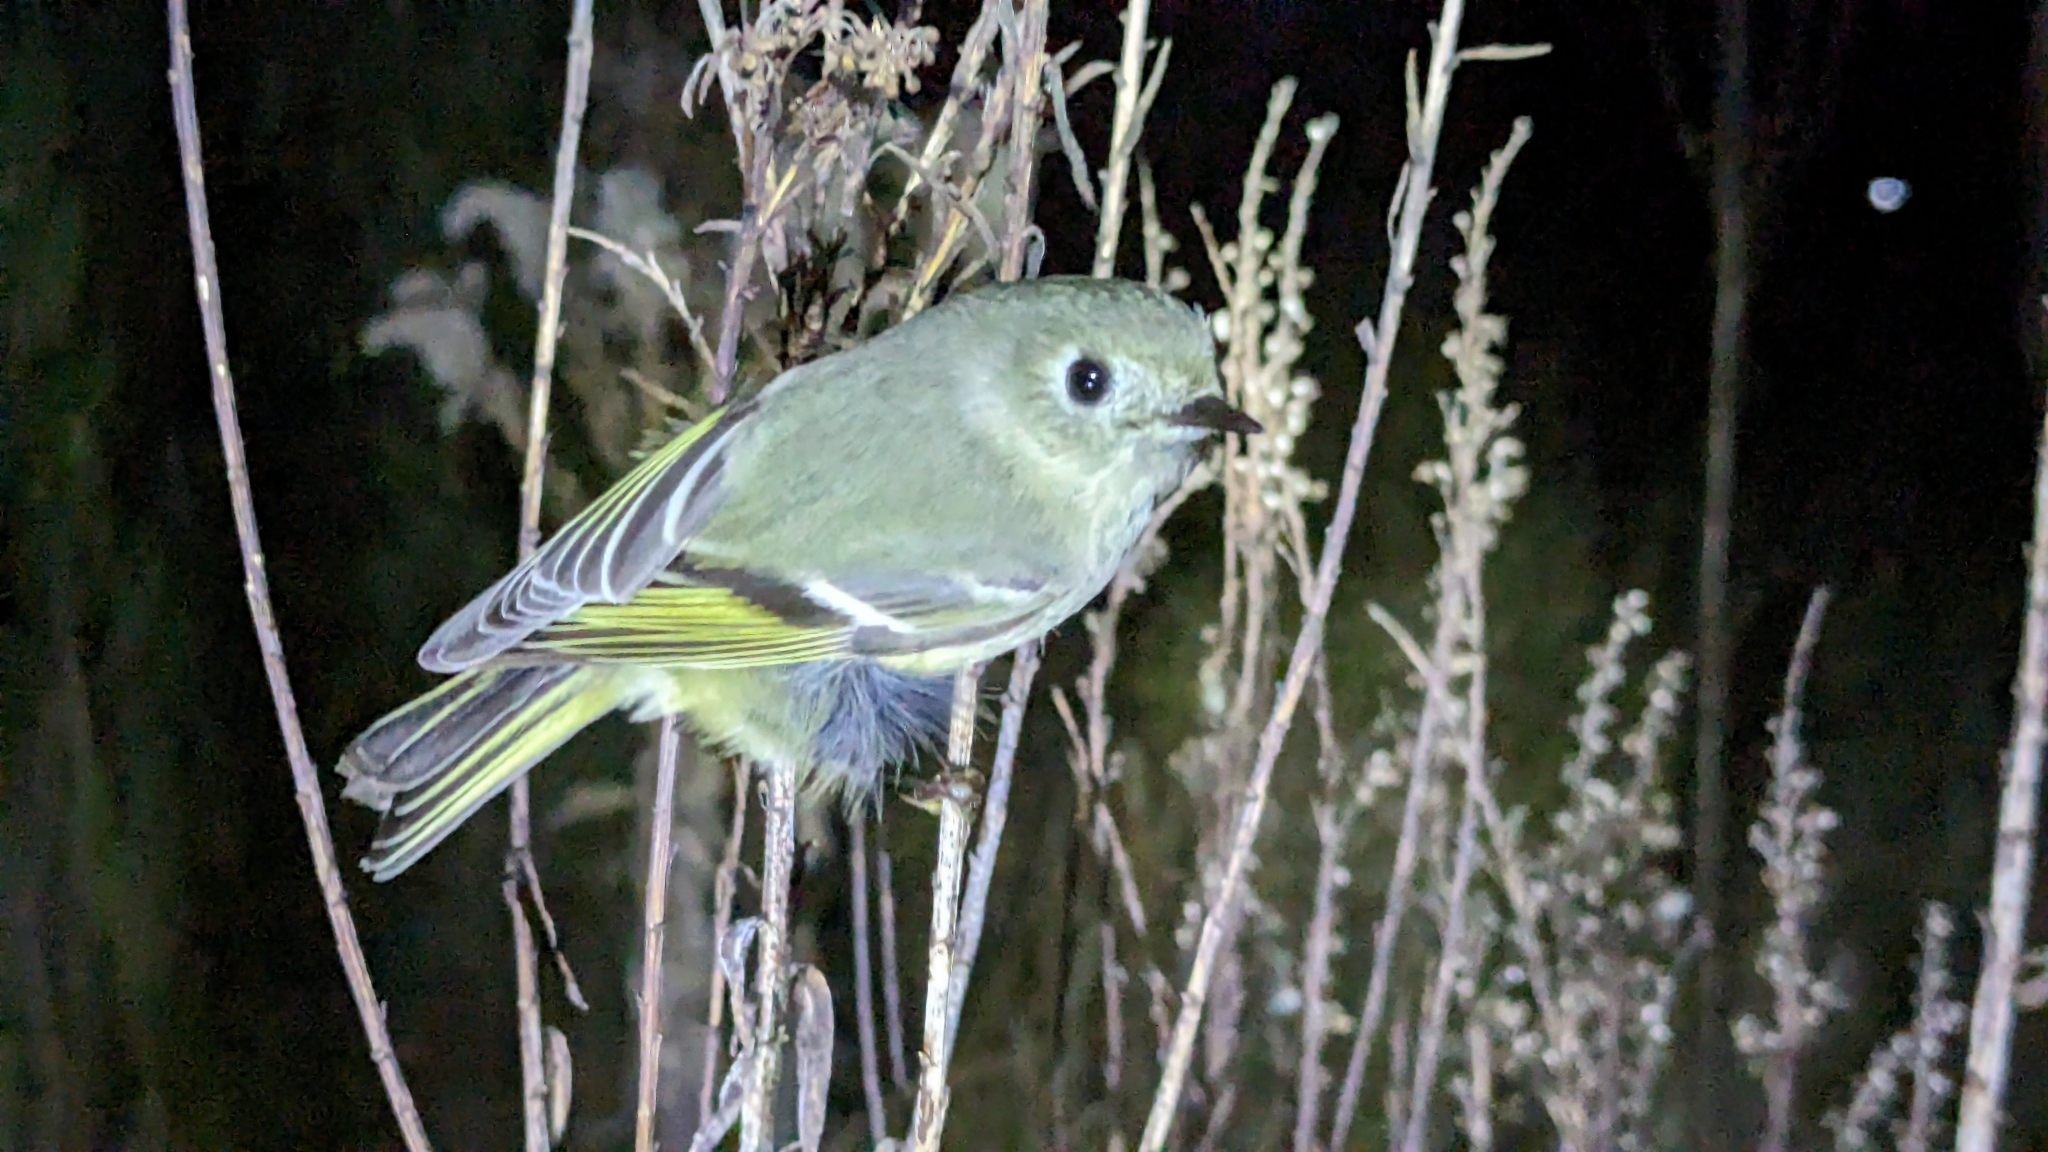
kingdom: Animalia
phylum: Chordata
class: Aves
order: Passeriformes
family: Regulidae
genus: Regulus
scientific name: Regulus calendula
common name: Ruby-crowned kinglet
